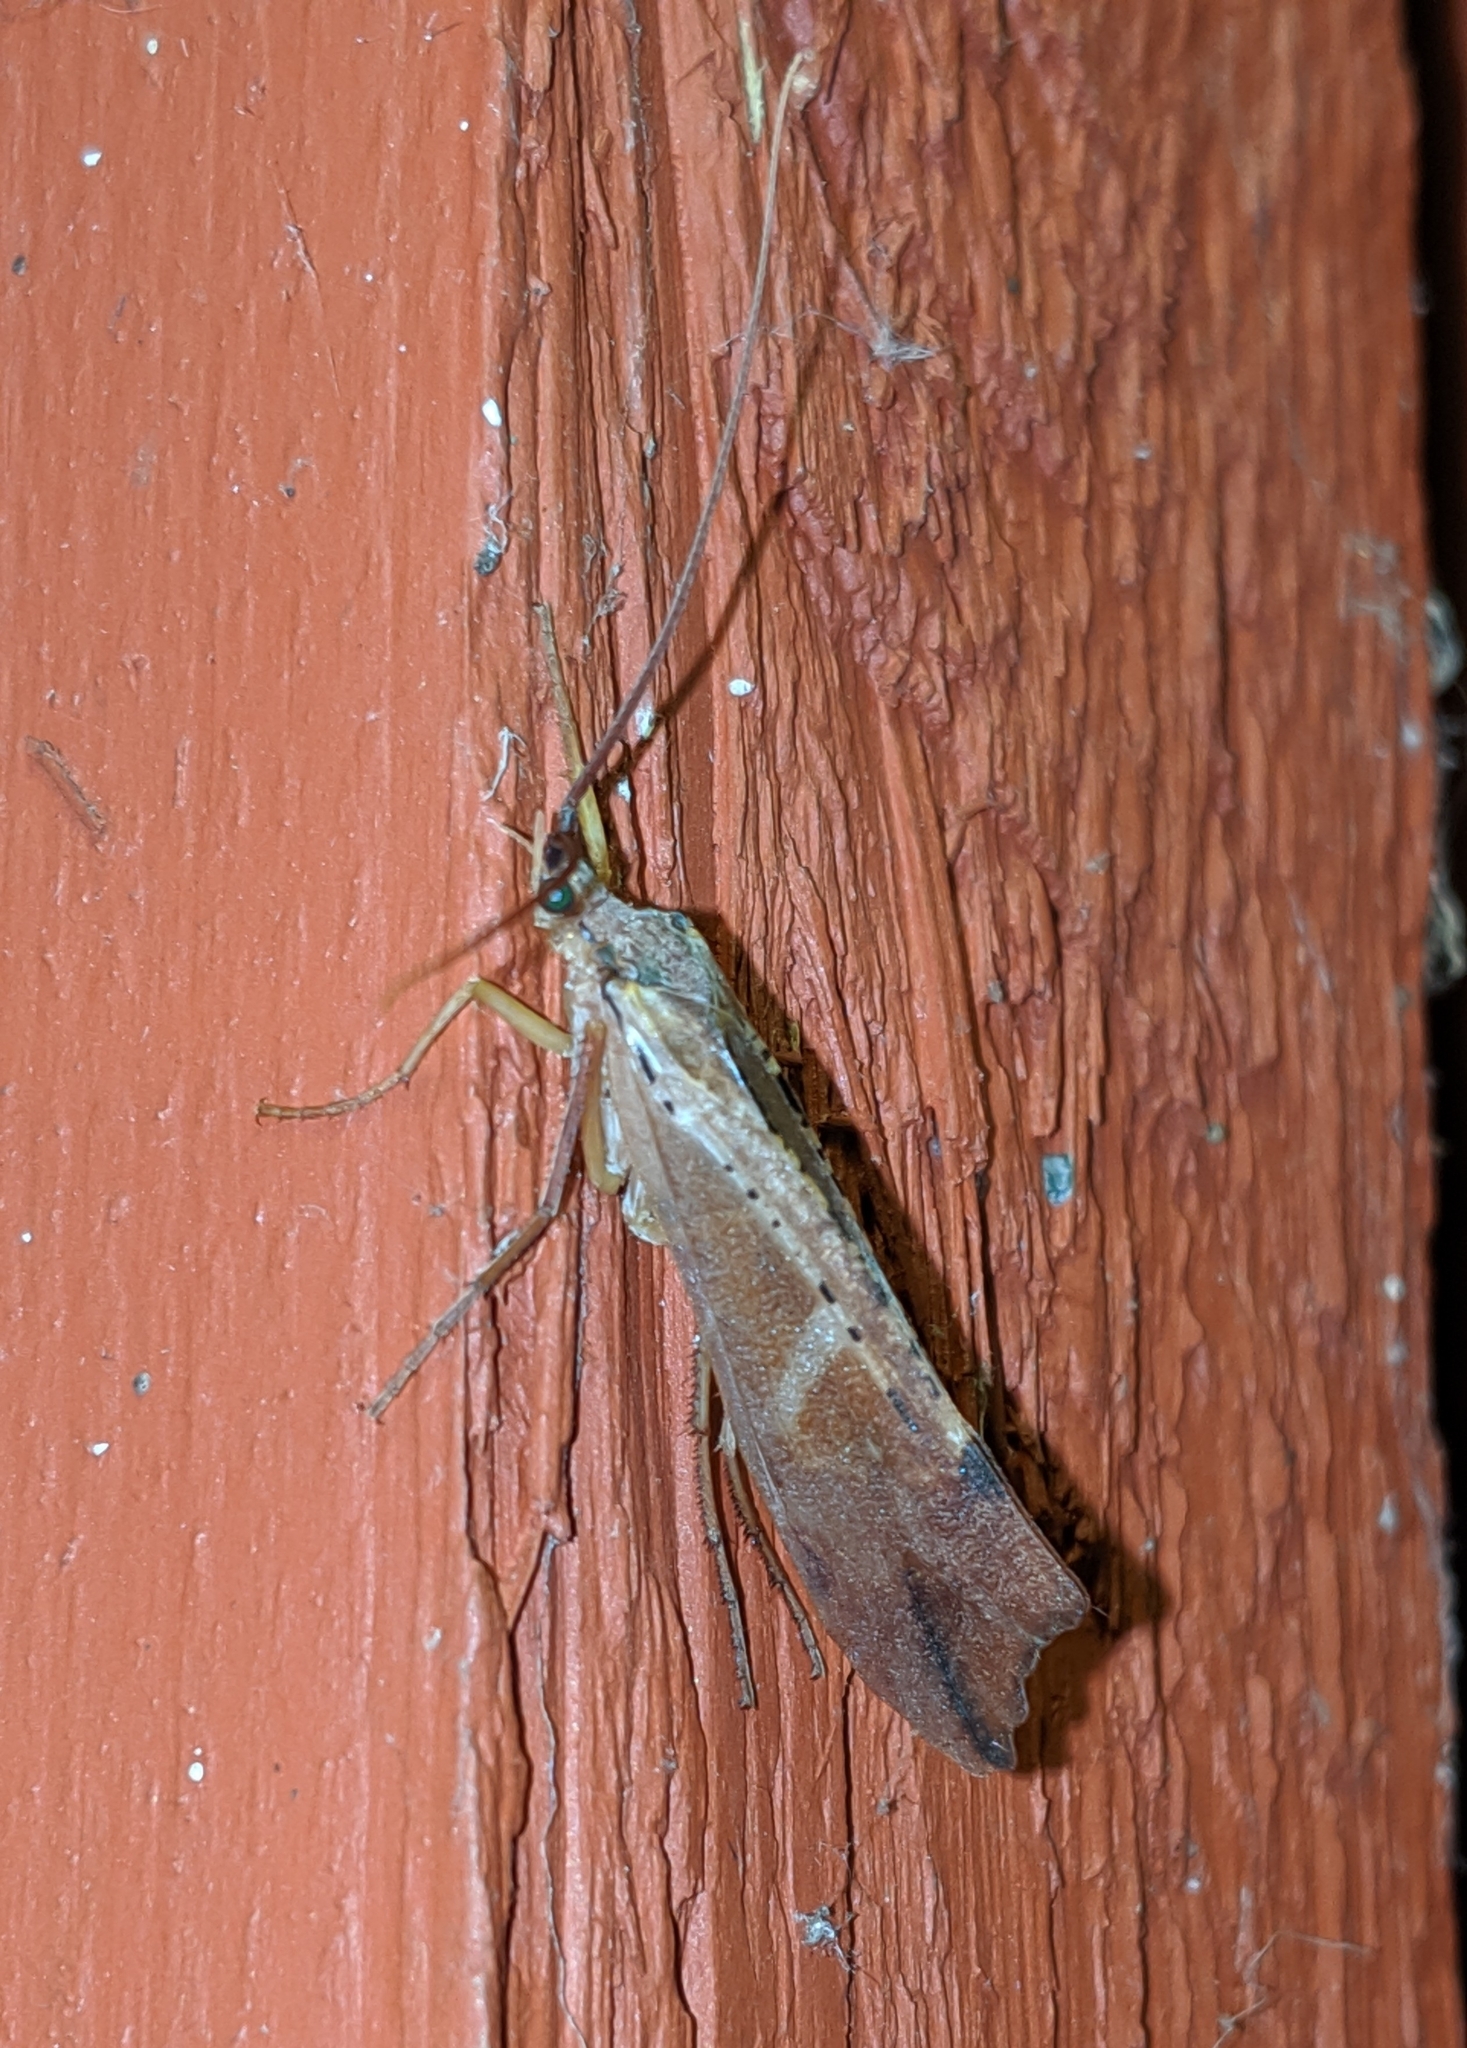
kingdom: Animalia
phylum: Arthropoda
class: Insecta
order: Trichoptera
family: Limnephilidae
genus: Nemotaulius
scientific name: Nemotaulius hostilis
